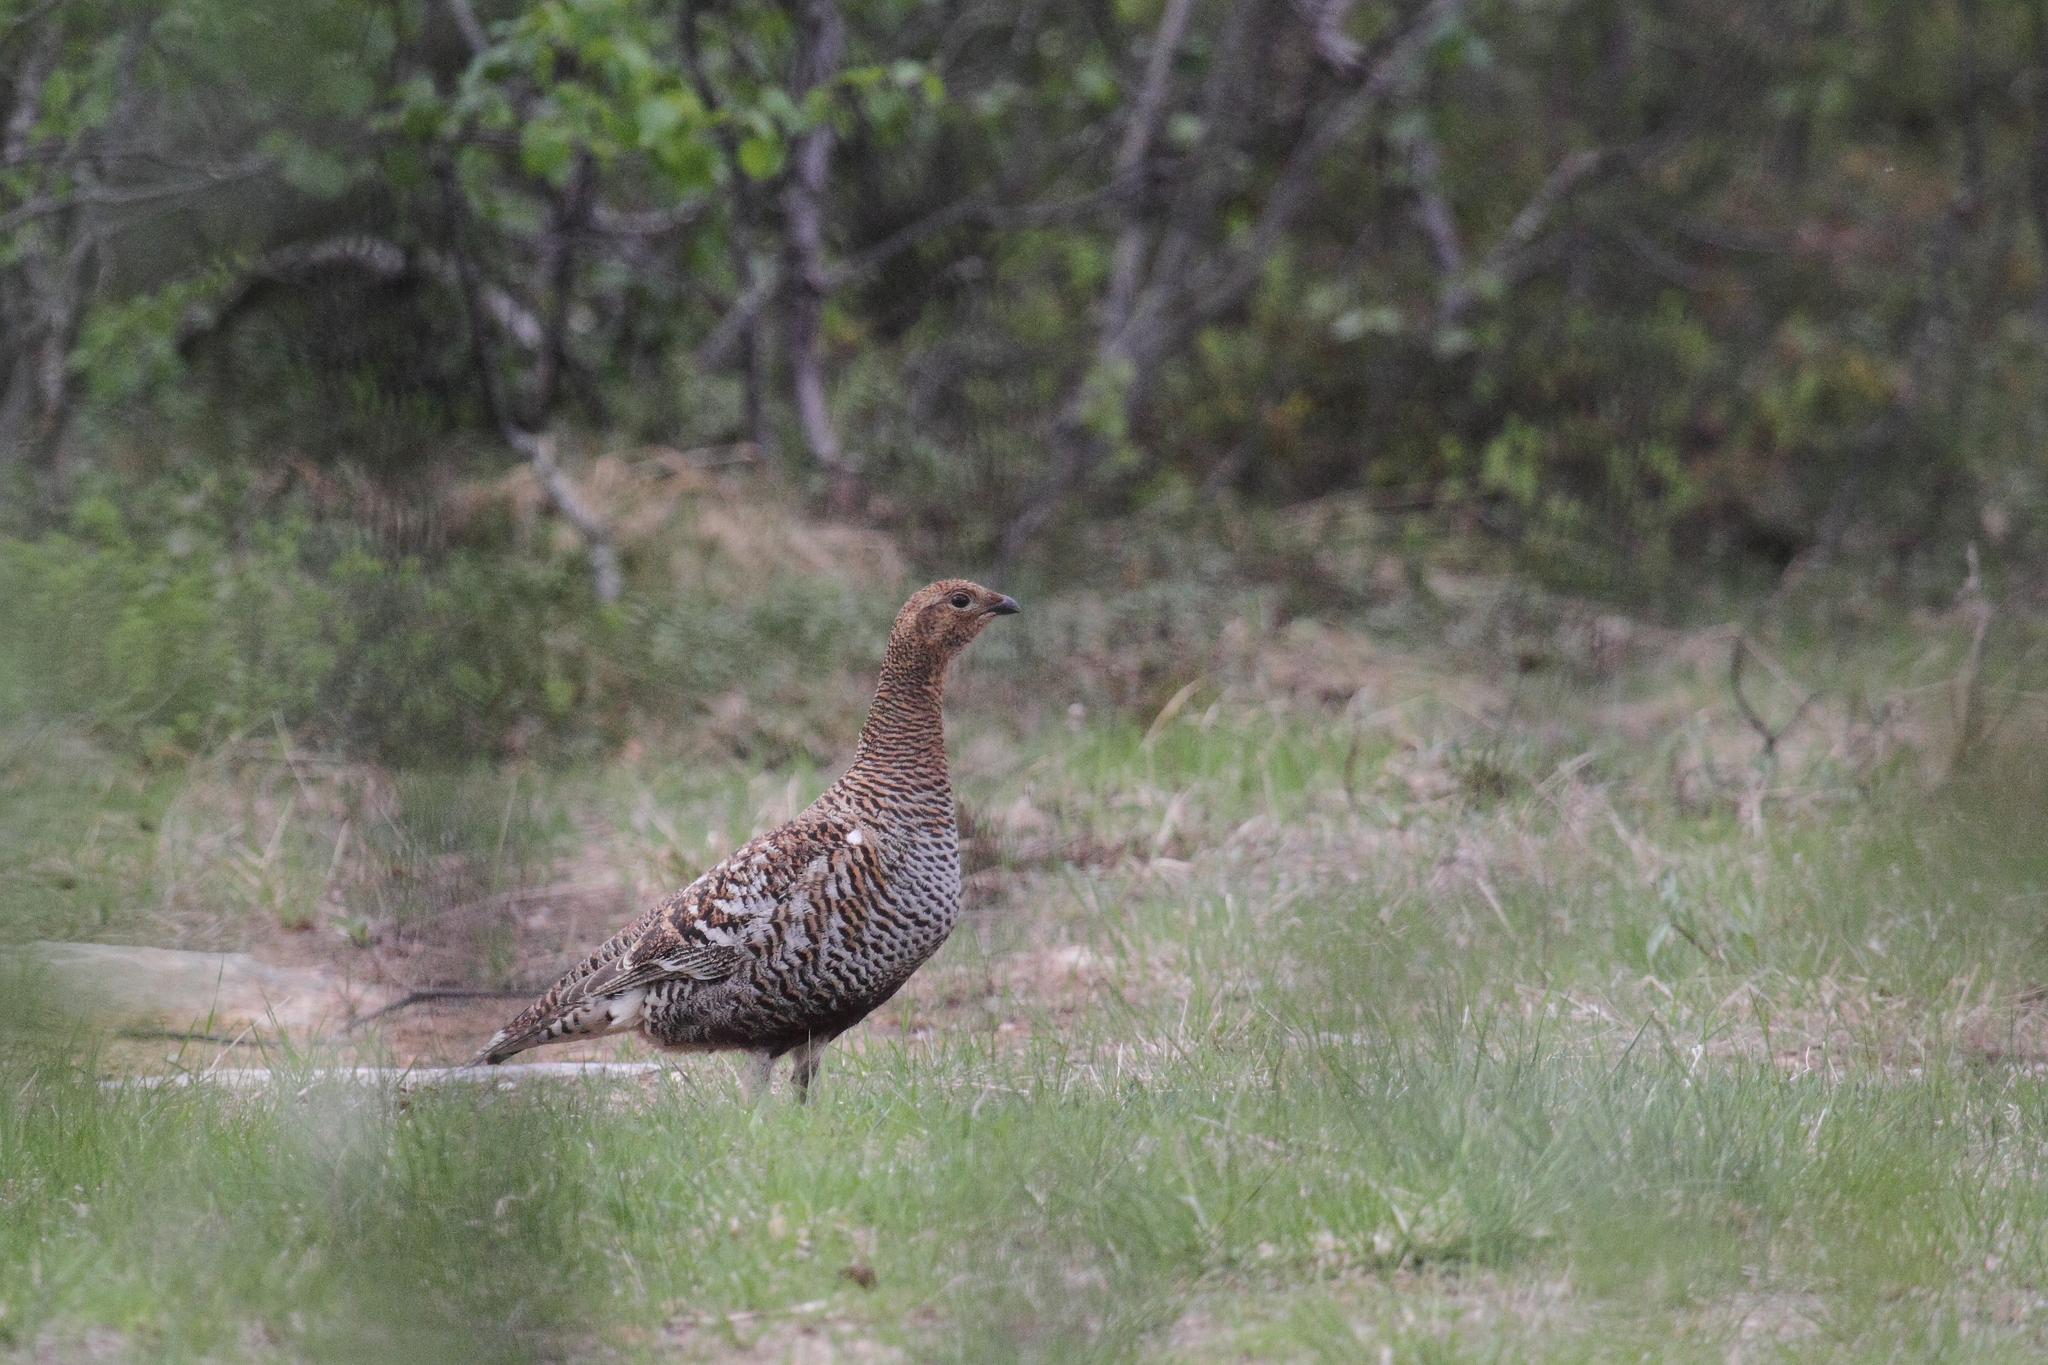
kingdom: Animalia
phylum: Chordata
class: Aves
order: Galliformes
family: Phasianidae
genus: Lyrurus
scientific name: Lyrurus tetrix
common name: Black grouse
